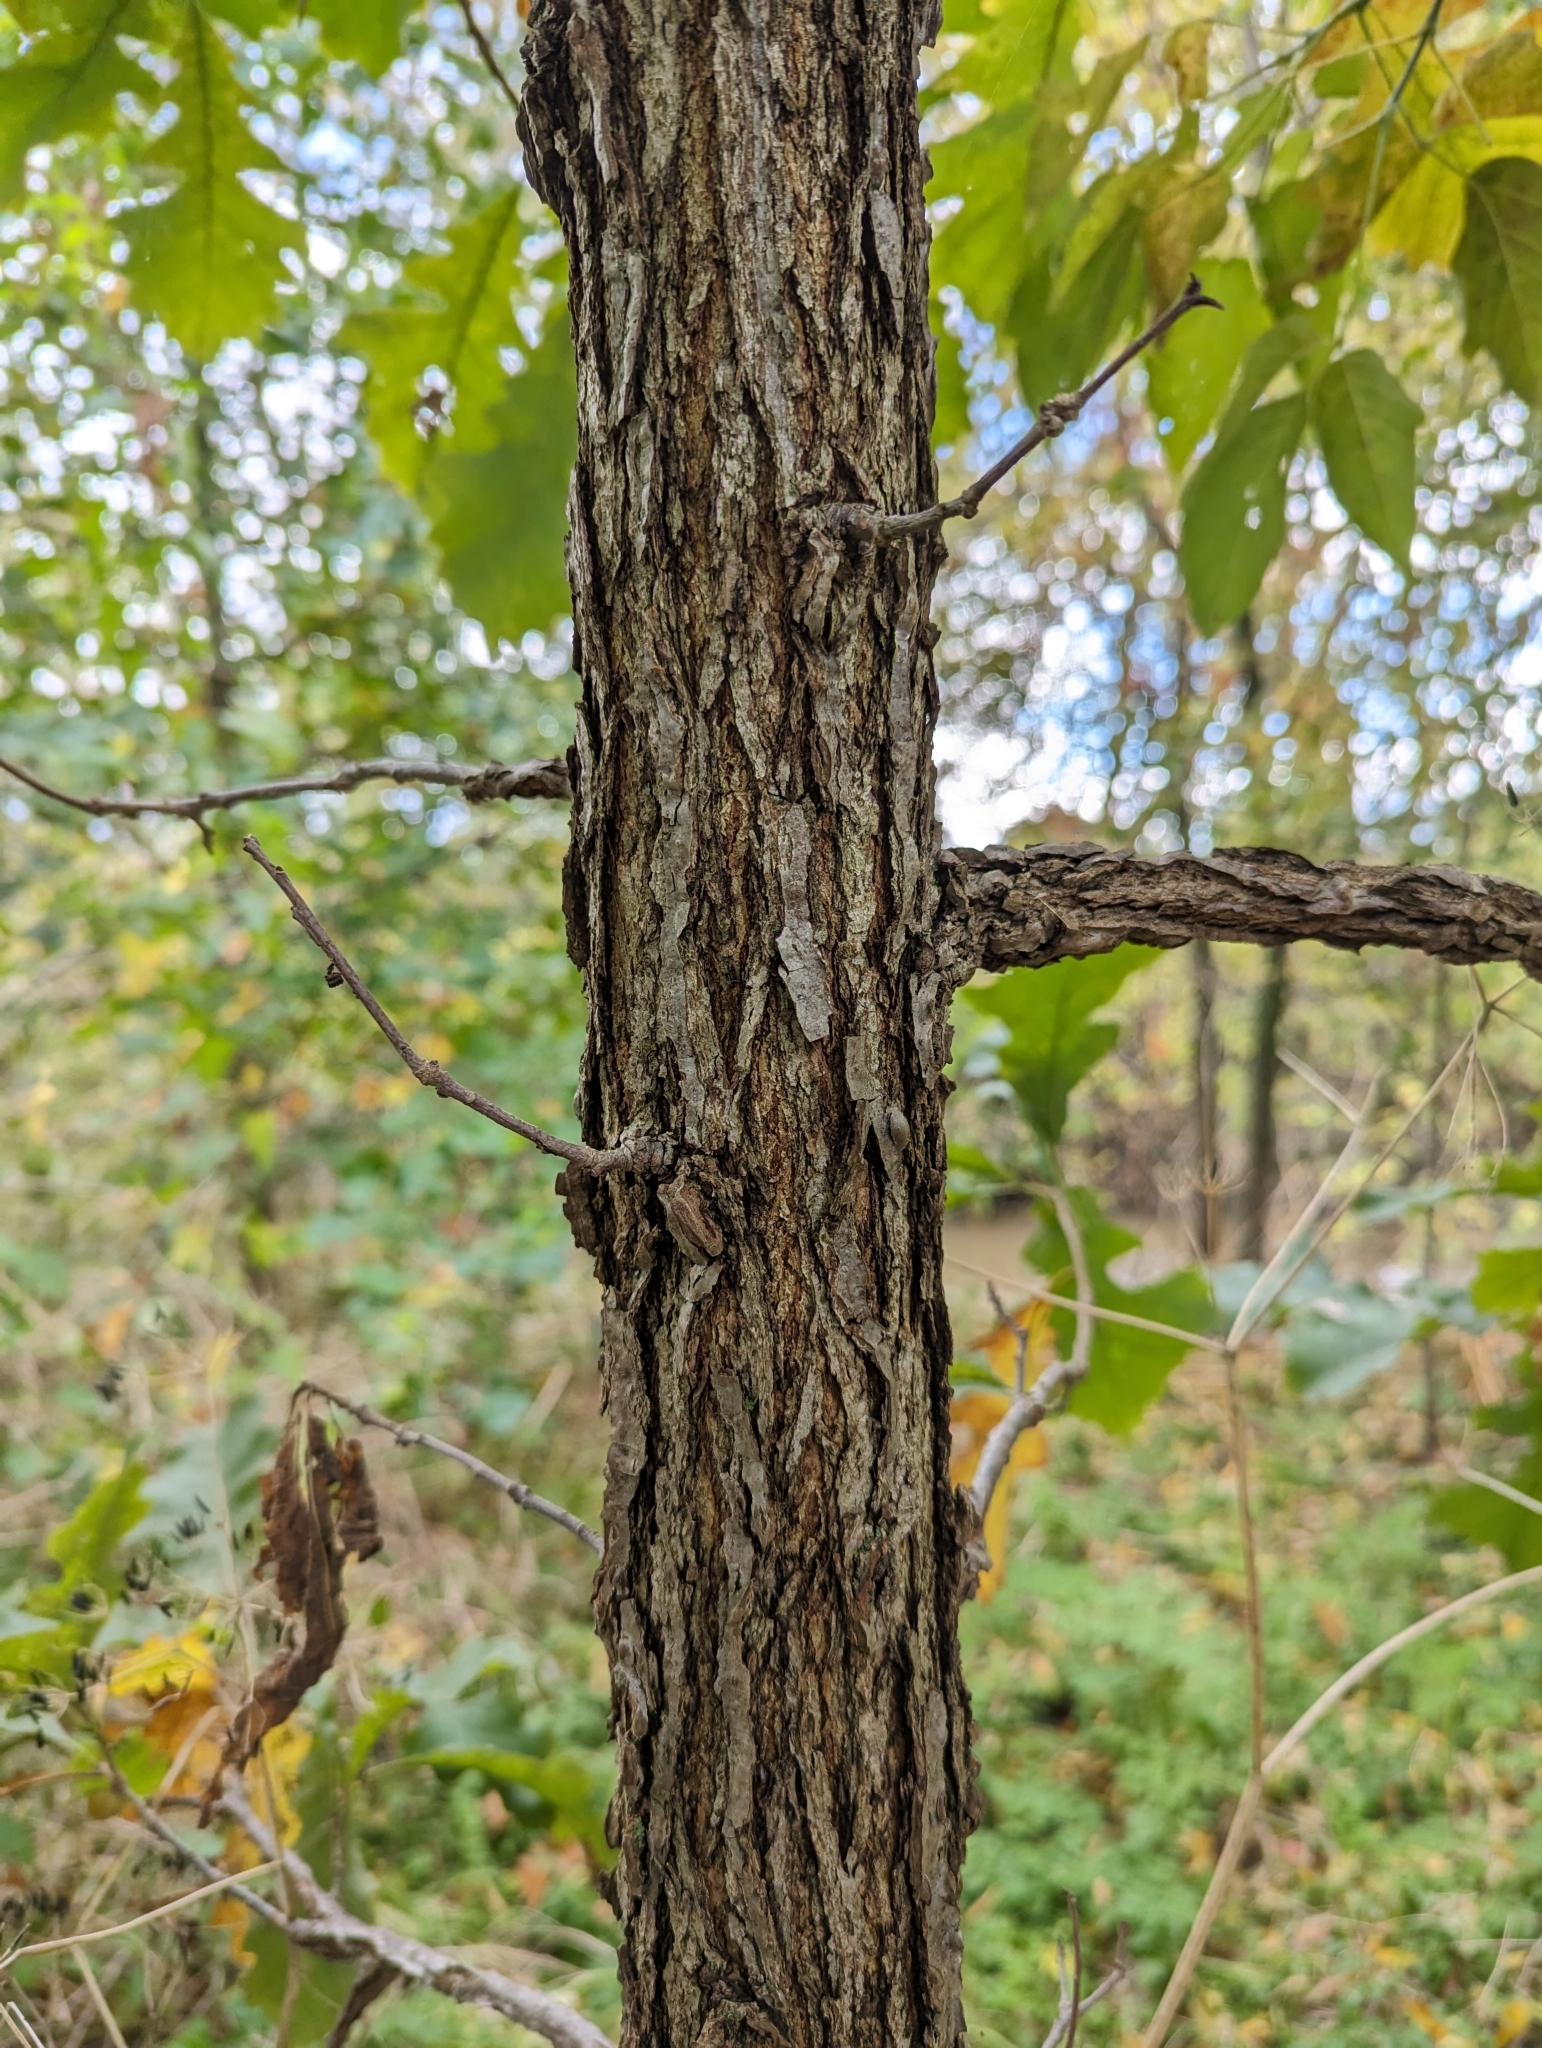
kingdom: Plantae
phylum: Tracheophyta
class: Magnoliopsida
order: Fagales
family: Fagaceae
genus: Quercus
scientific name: Quercus macrocarpa
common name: Bur oak
